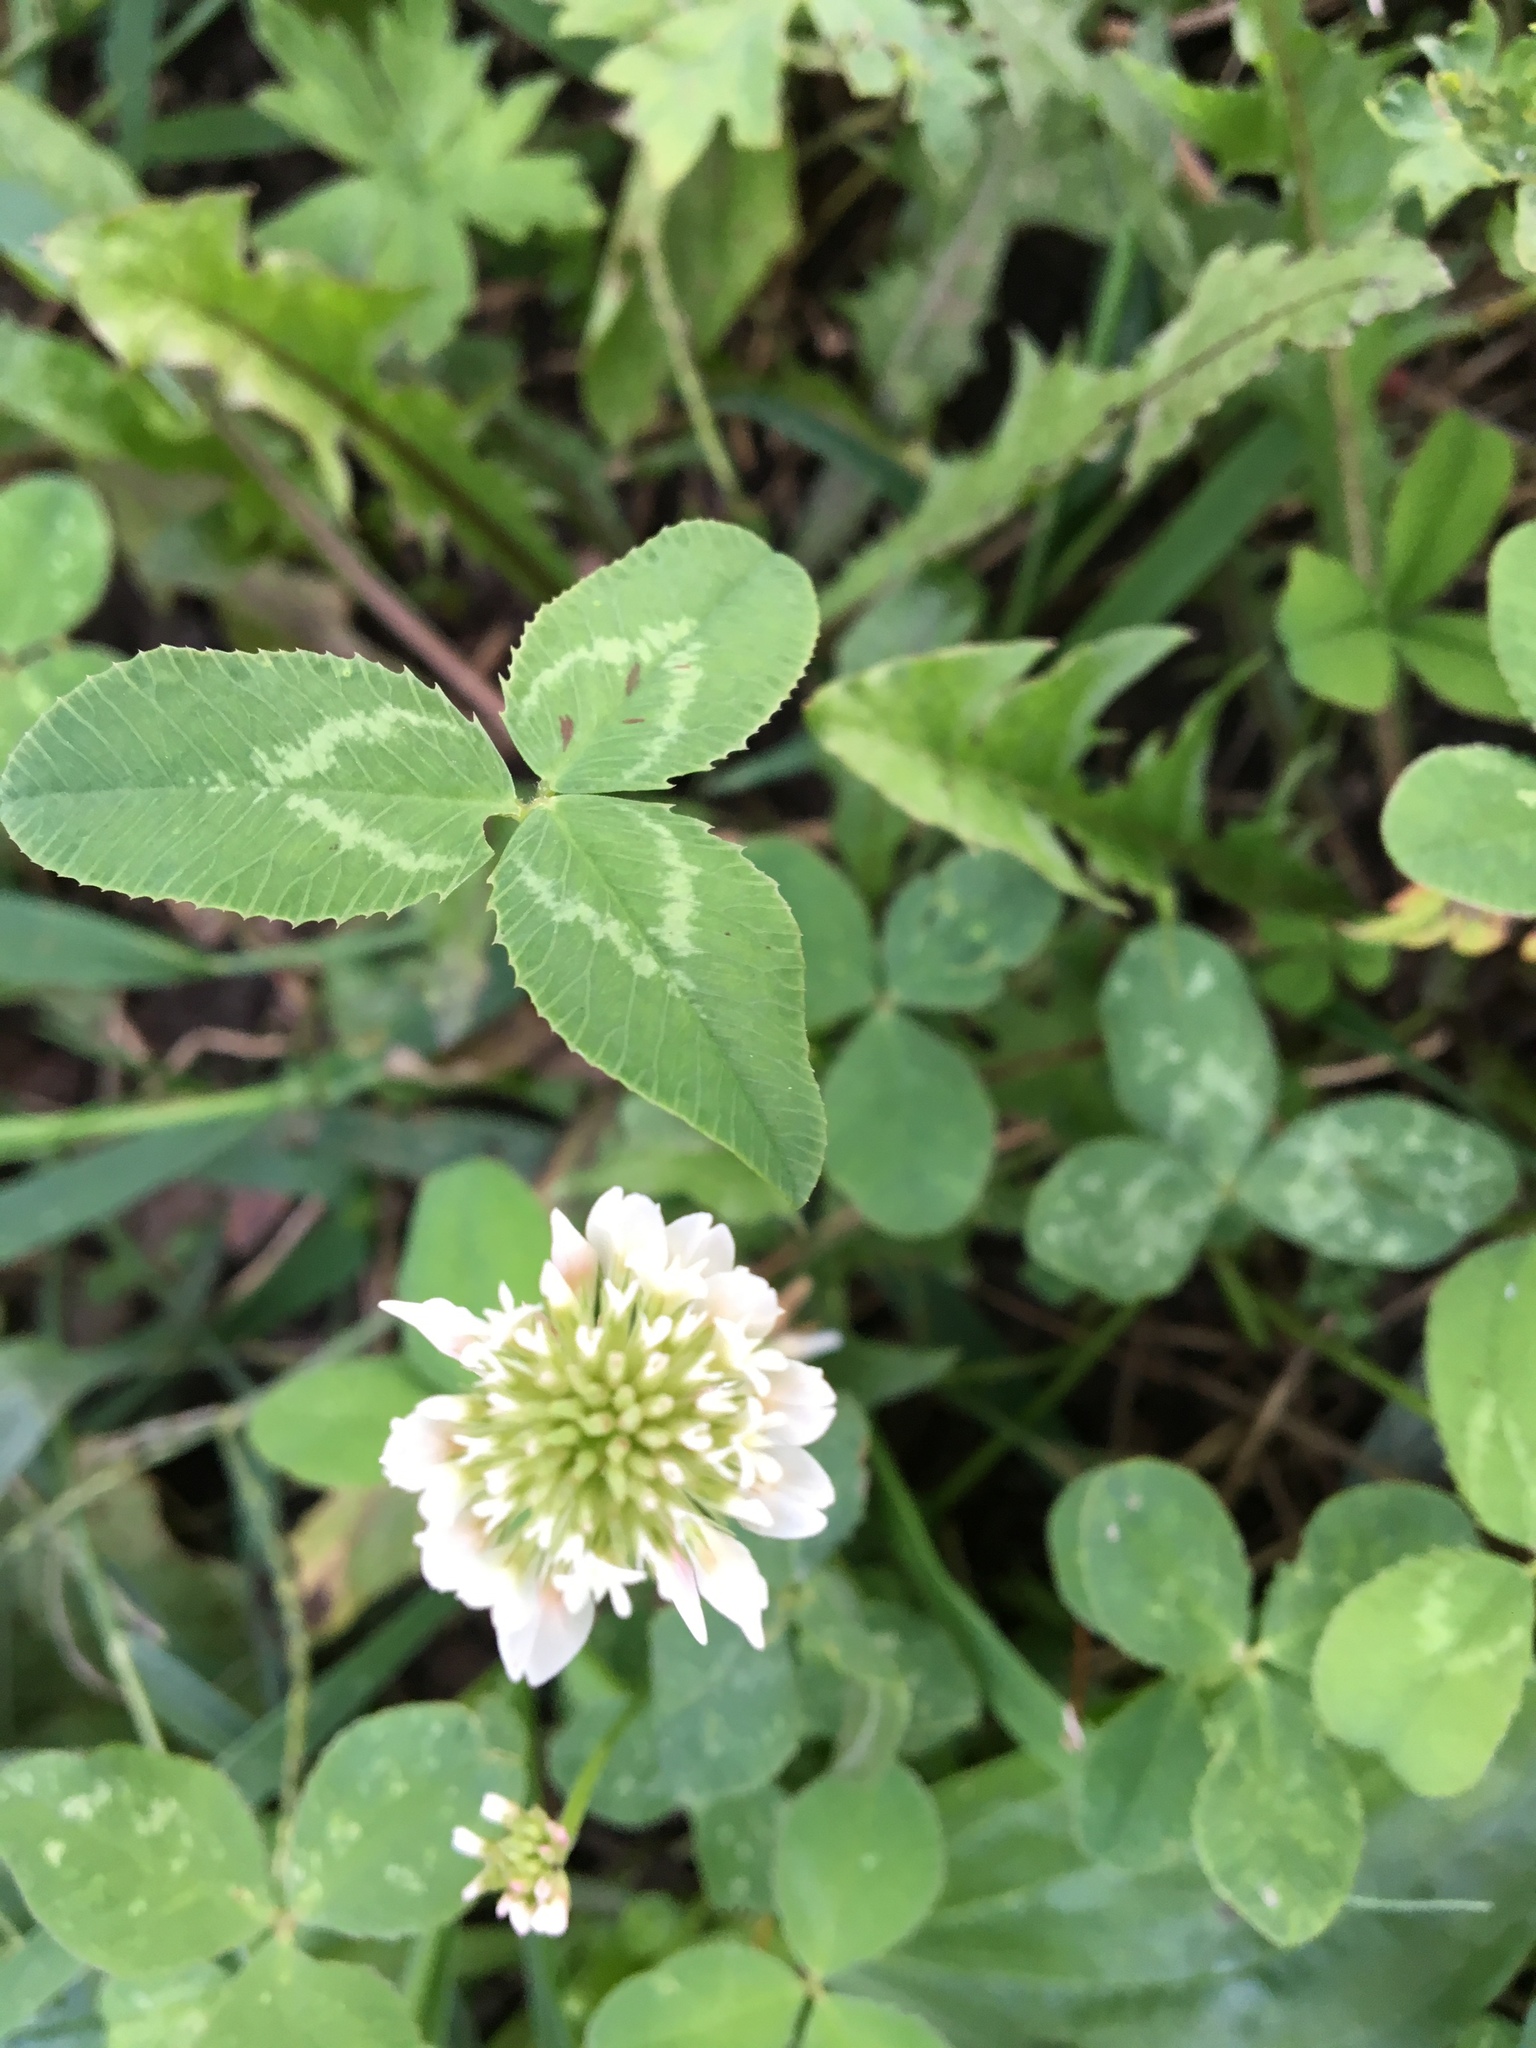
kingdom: Plantae
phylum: Tracheophyta
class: Magnoliopsida
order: Fabales
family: Fabaceae
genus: Trifolium
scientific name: Trifolium repens
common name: White clover
